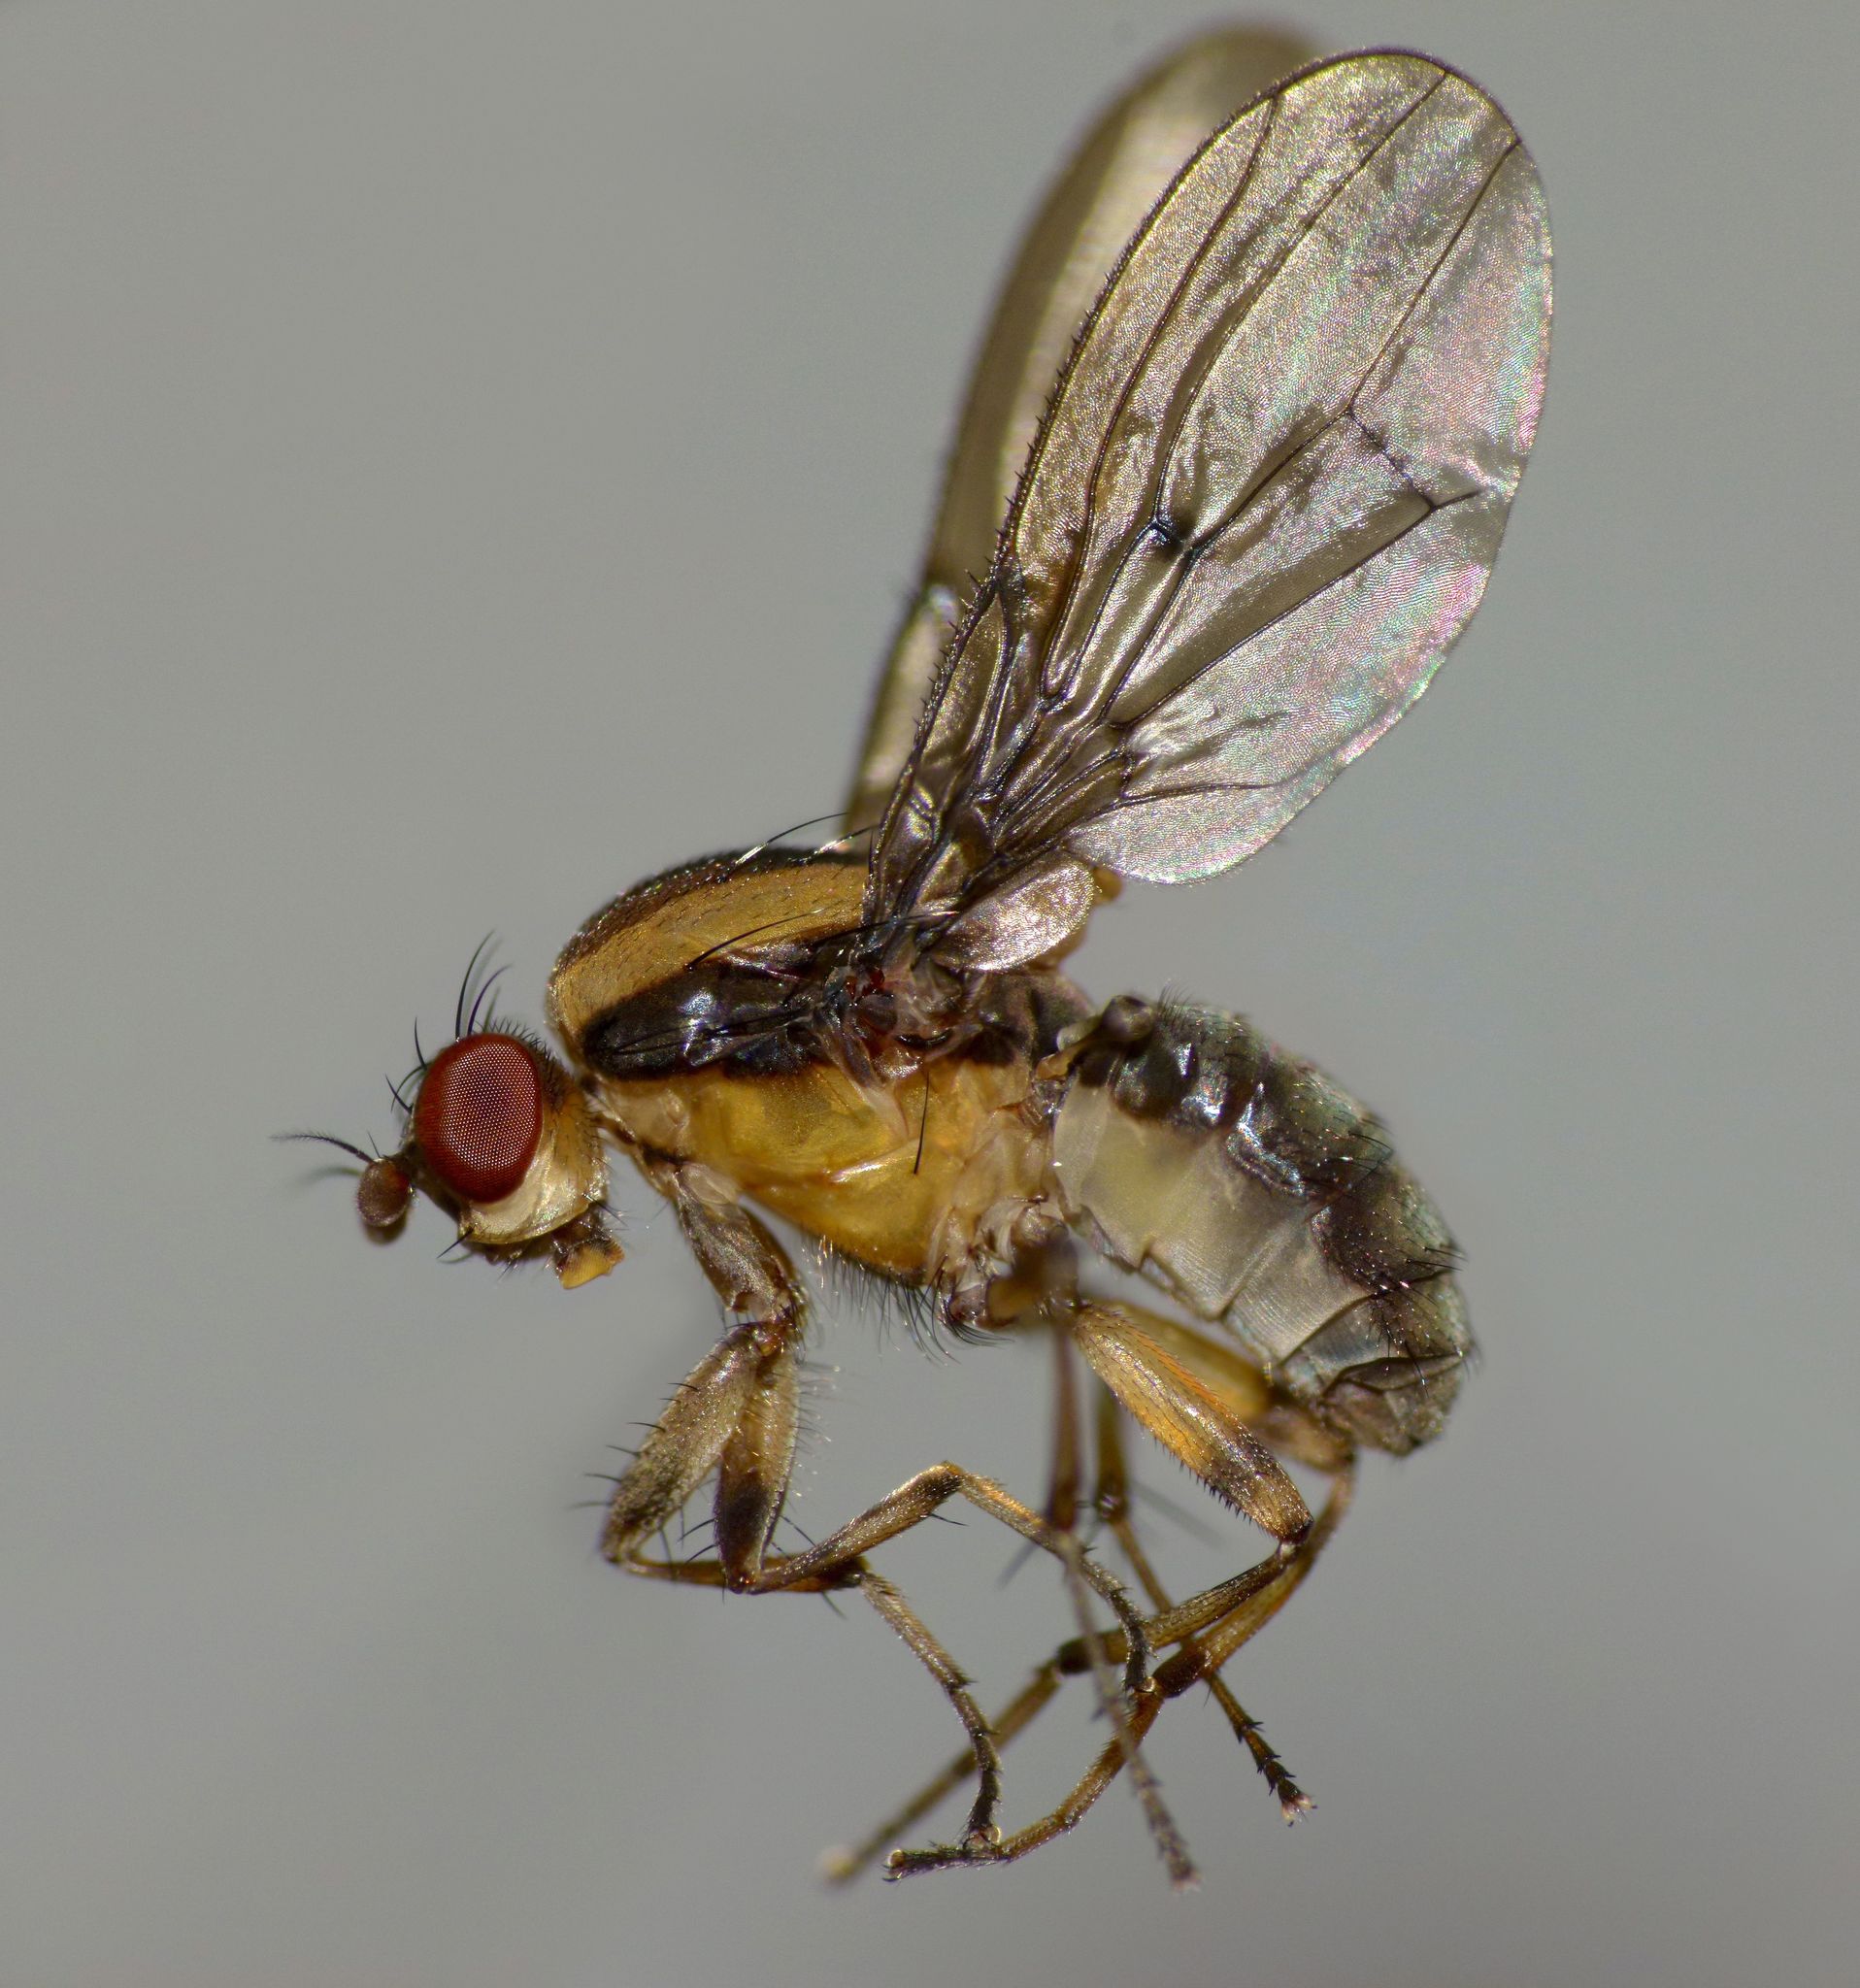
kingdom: Animalia
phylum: Arthropoda
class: Insecta
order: Diptera
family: Heleomyzidae
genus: Allophylopsis
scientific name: Allophylopsis scutellata
